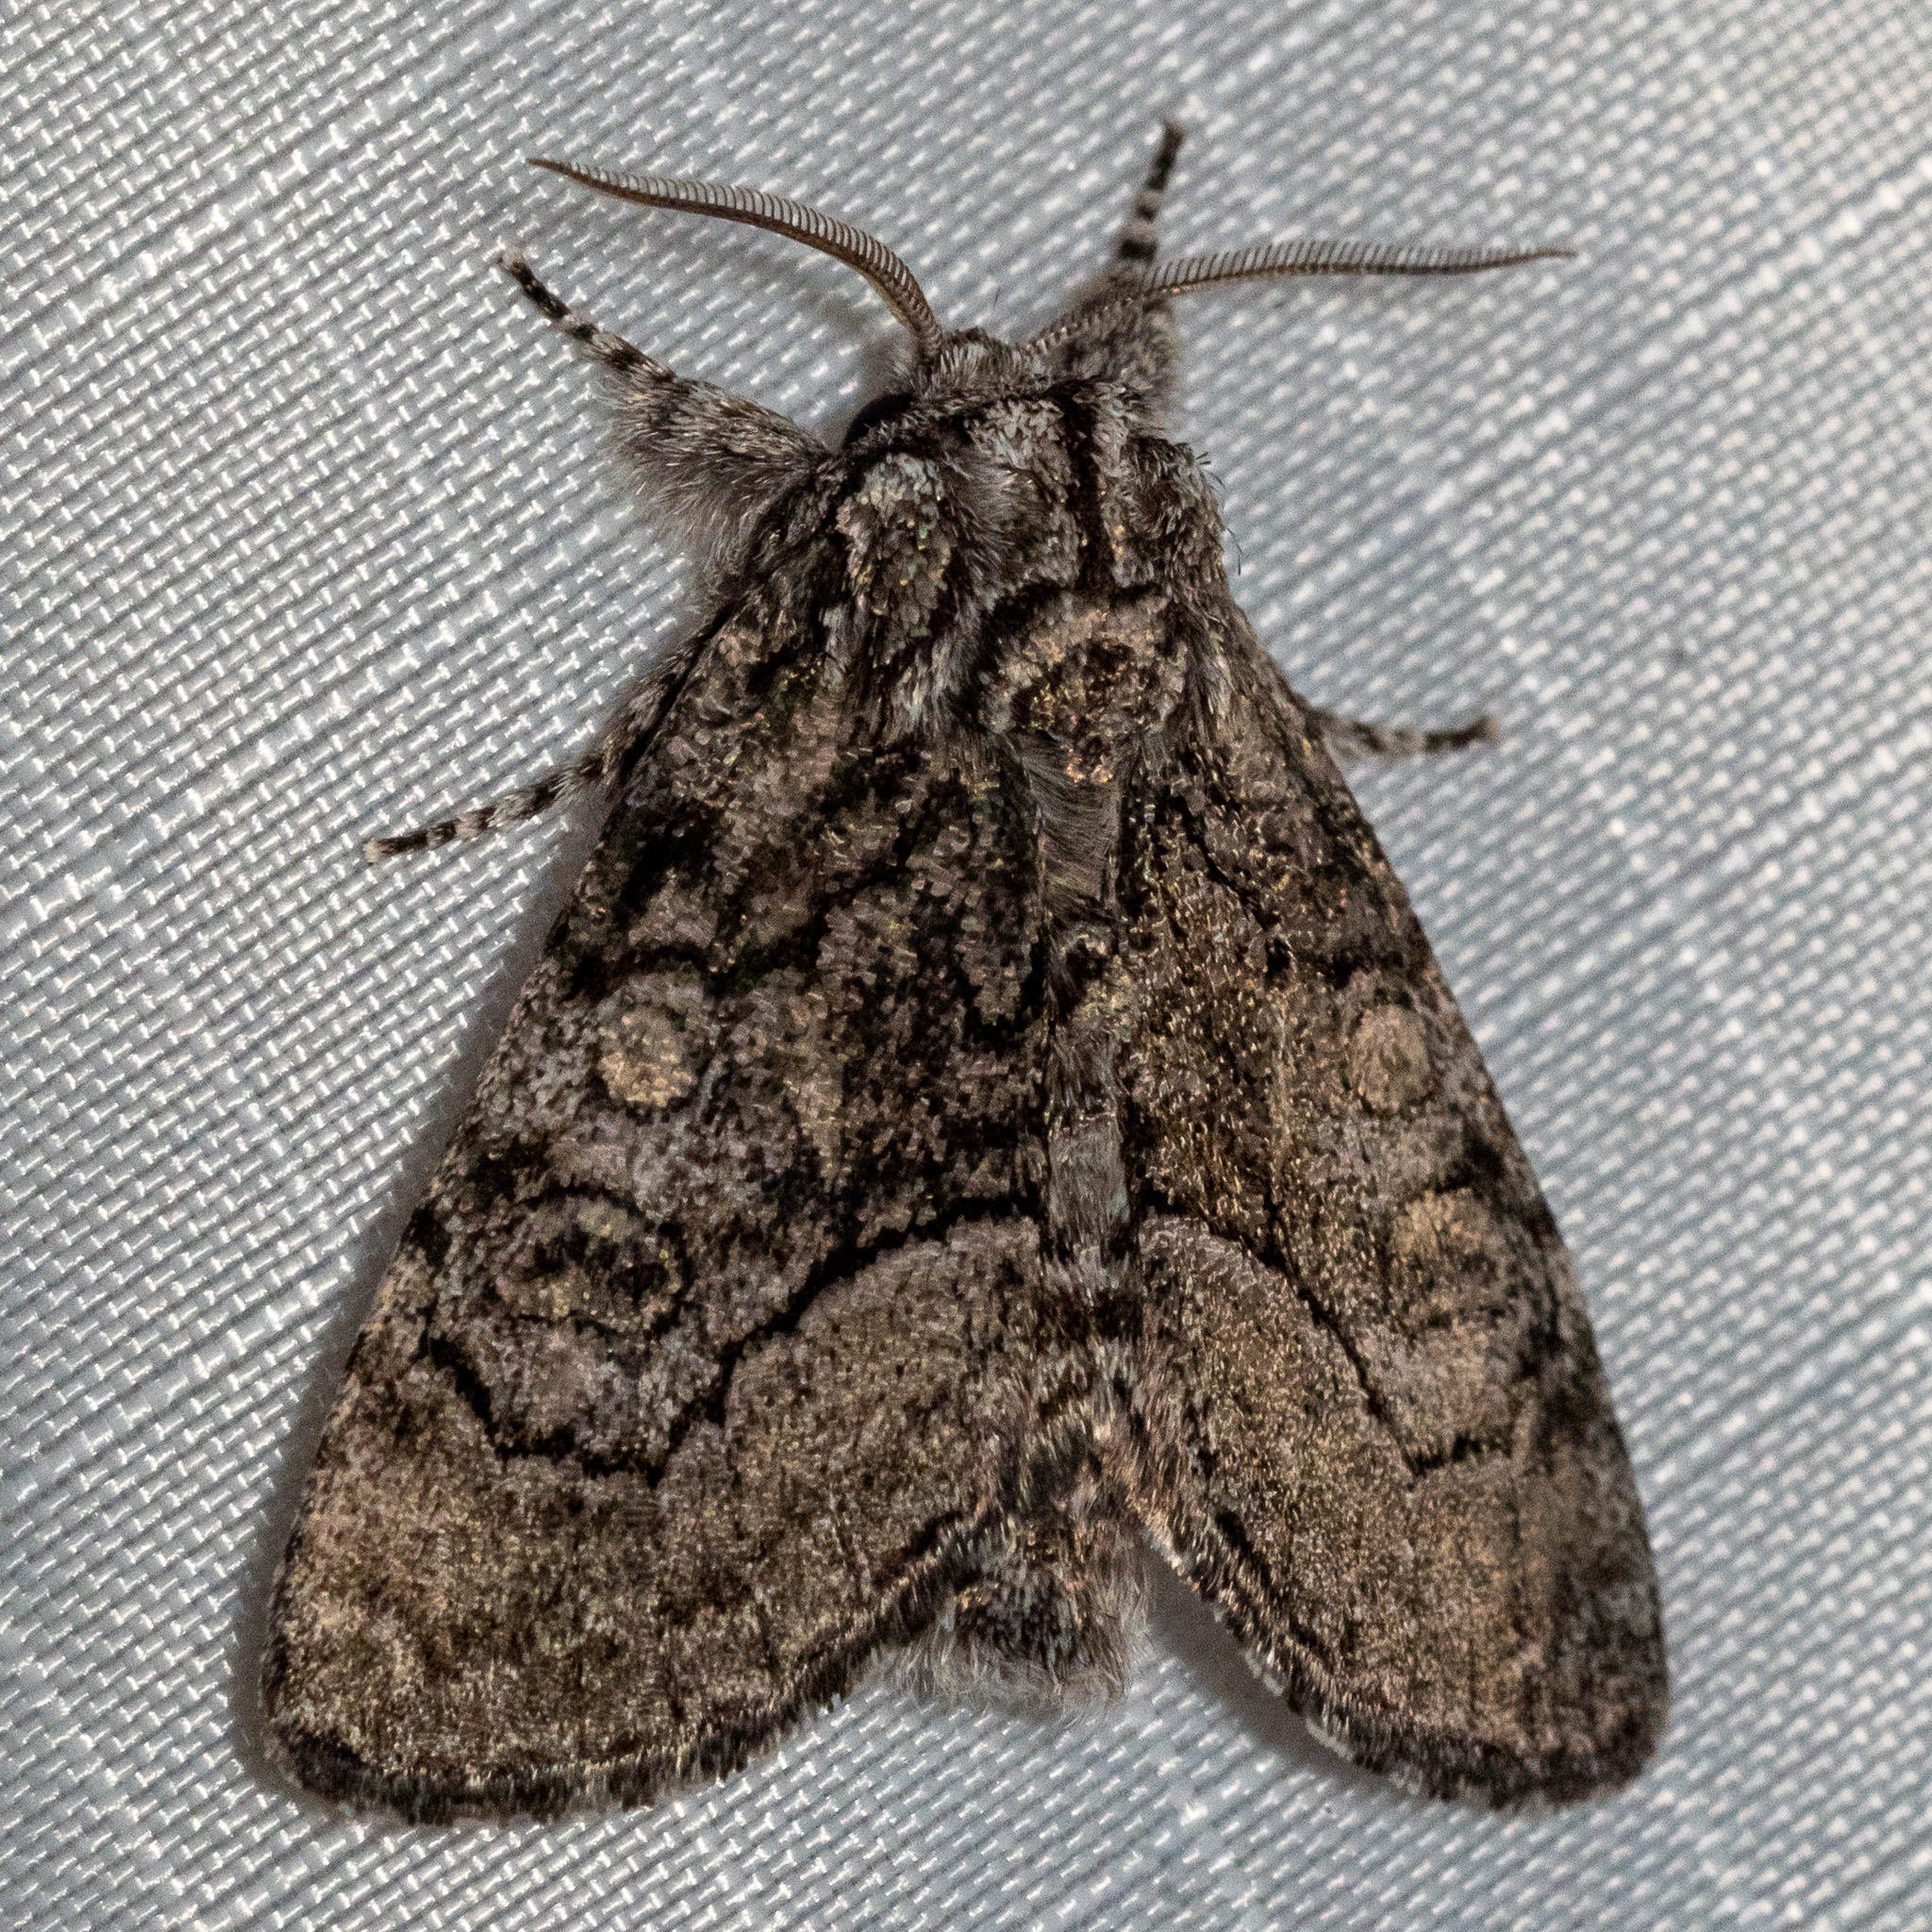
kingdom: Animalia
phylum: Arthropoda
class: Insecta
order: Lepidoptera
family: Noctuidae
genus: Raphia
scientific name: Raphia frater
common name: Brother
